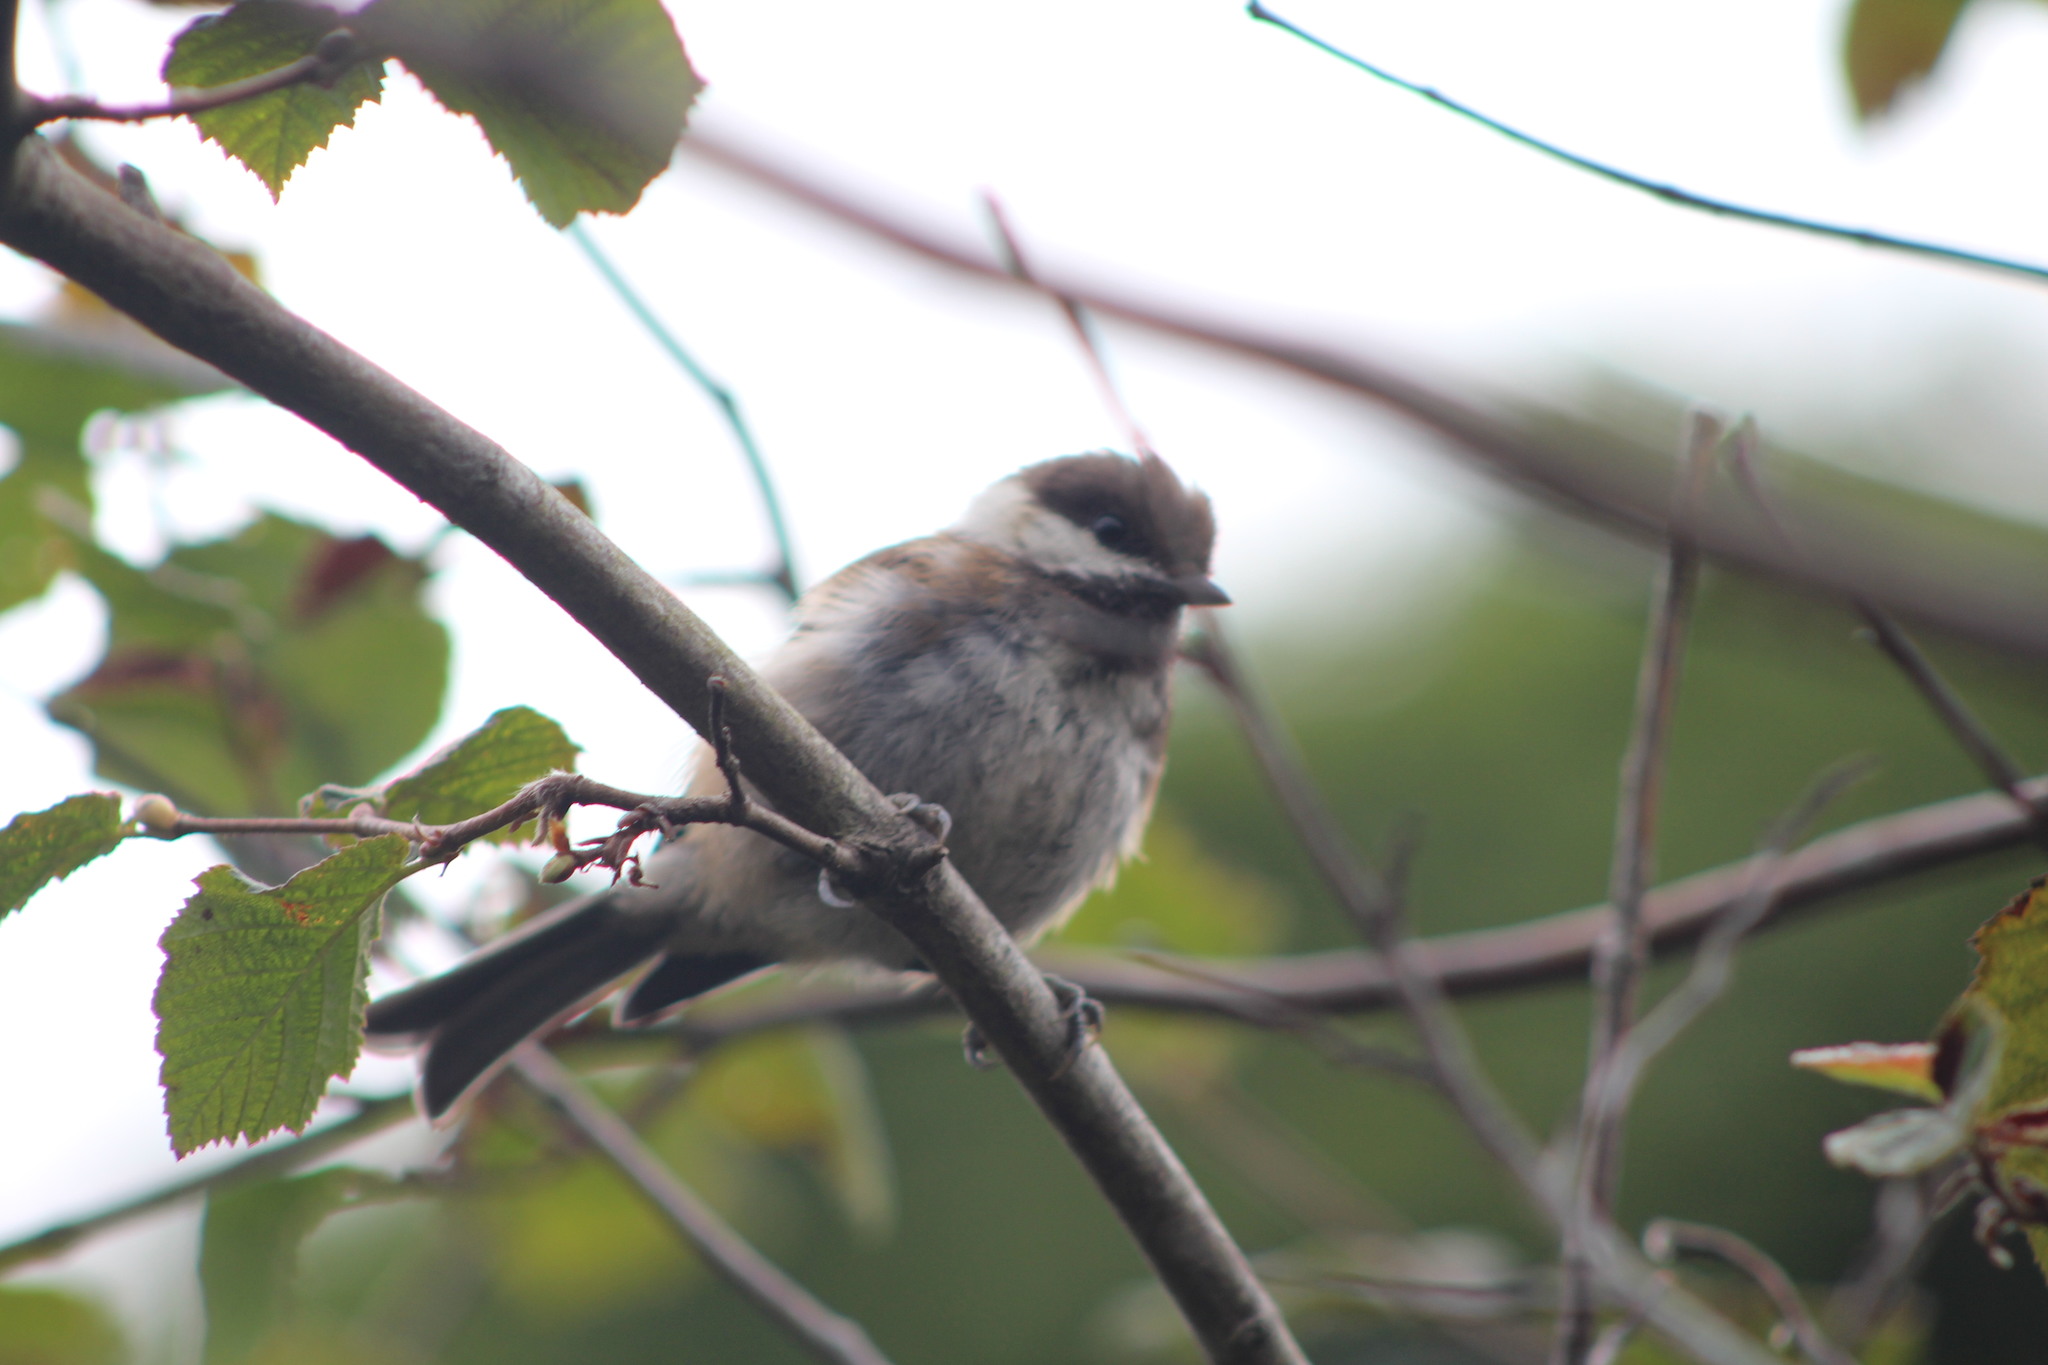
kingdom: Animalia
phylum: Chordata
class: Aves
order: Passeriformes
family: Paridae
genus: Poecile
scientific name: Poecile rufescens
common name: Chestnut-backed chickadee
